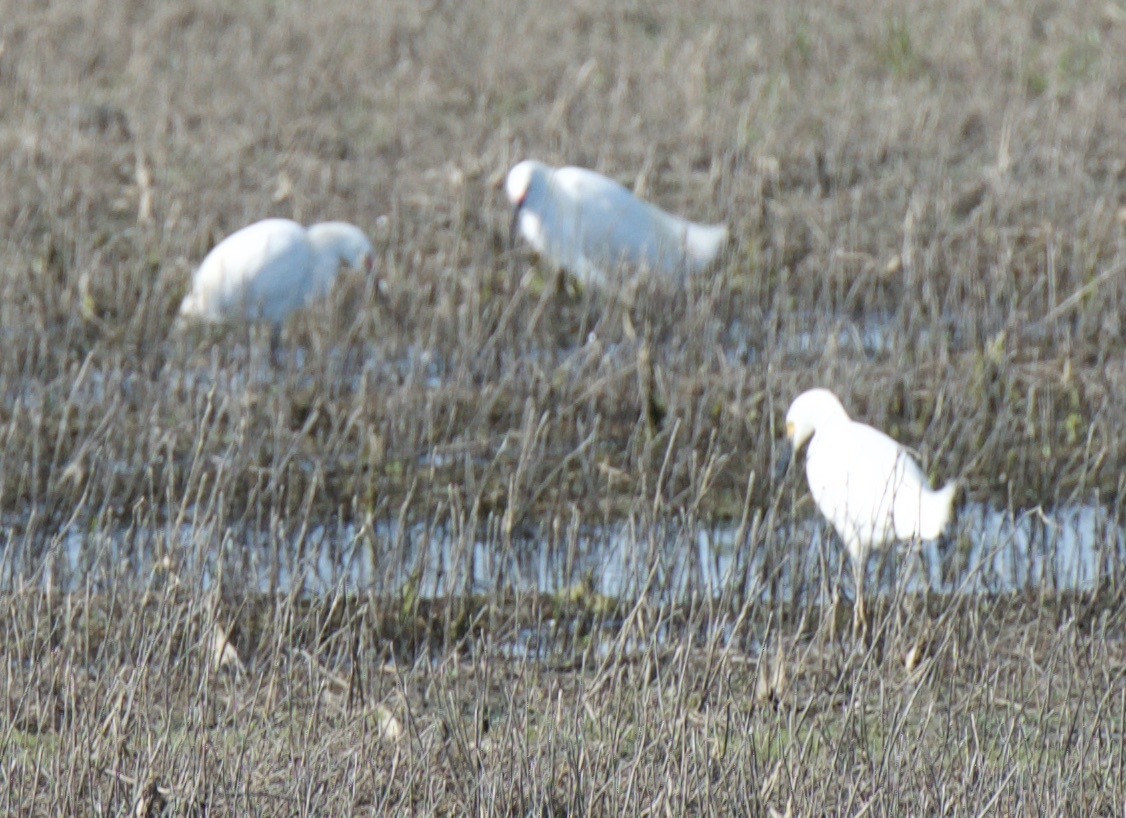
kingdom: Animalia
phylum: Chordata
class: Aves
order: Pelecaniformes
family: Ardeidae
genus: Egretta
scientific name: Egretta thula
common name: Snowy egret
